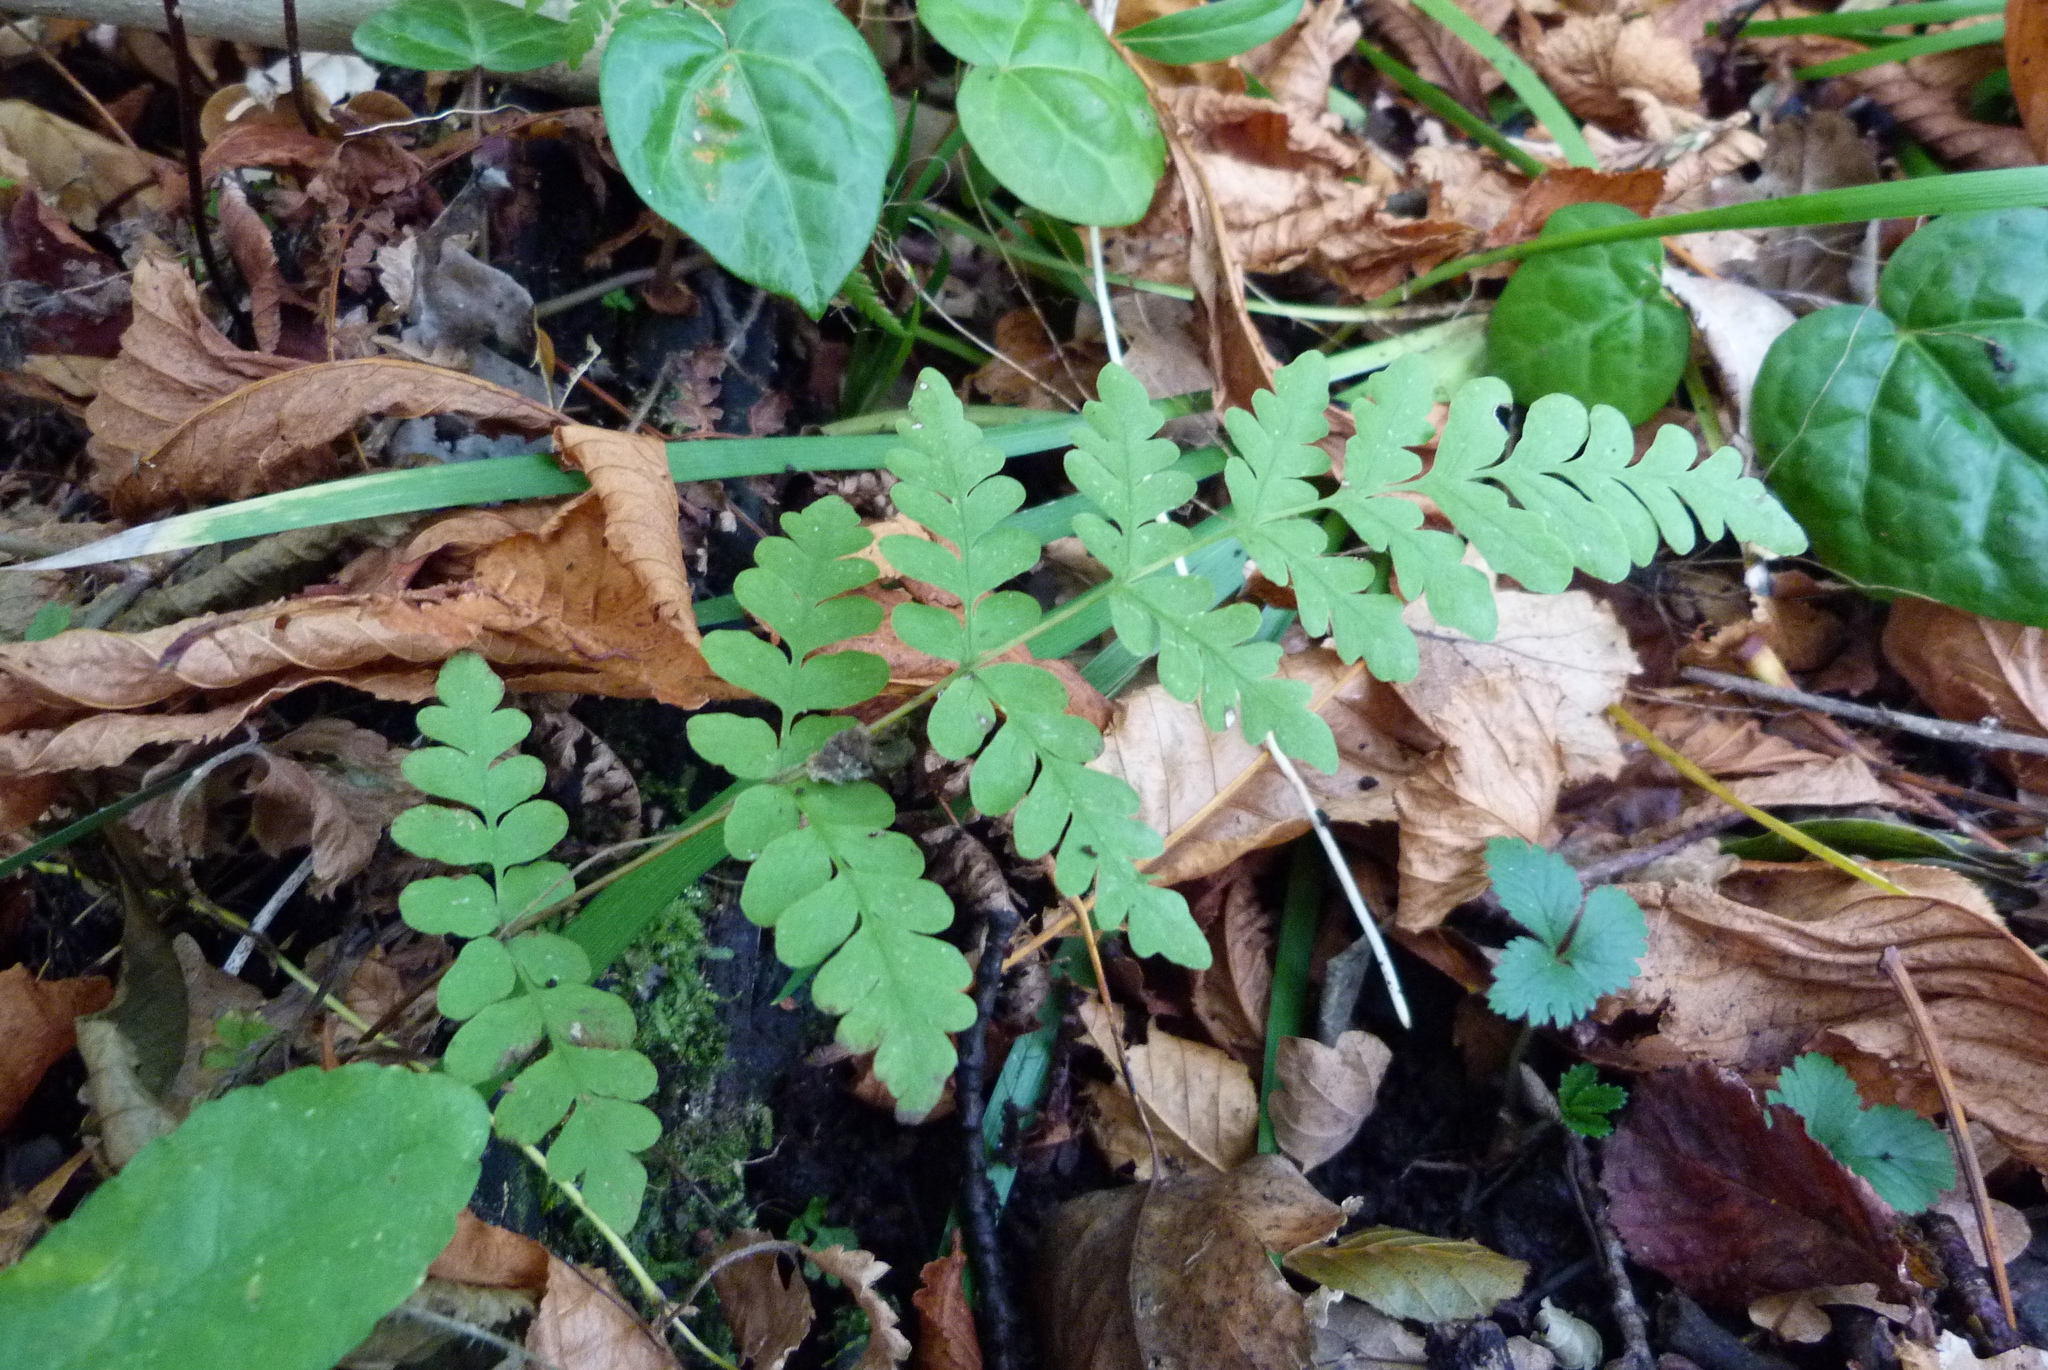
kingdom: Plantae
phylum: Tracheophyta
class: Polypodiopsida
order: Polypodiales
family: Dennstaedtiaceae
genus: Histiopteris
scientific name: Histiopteris incisa
